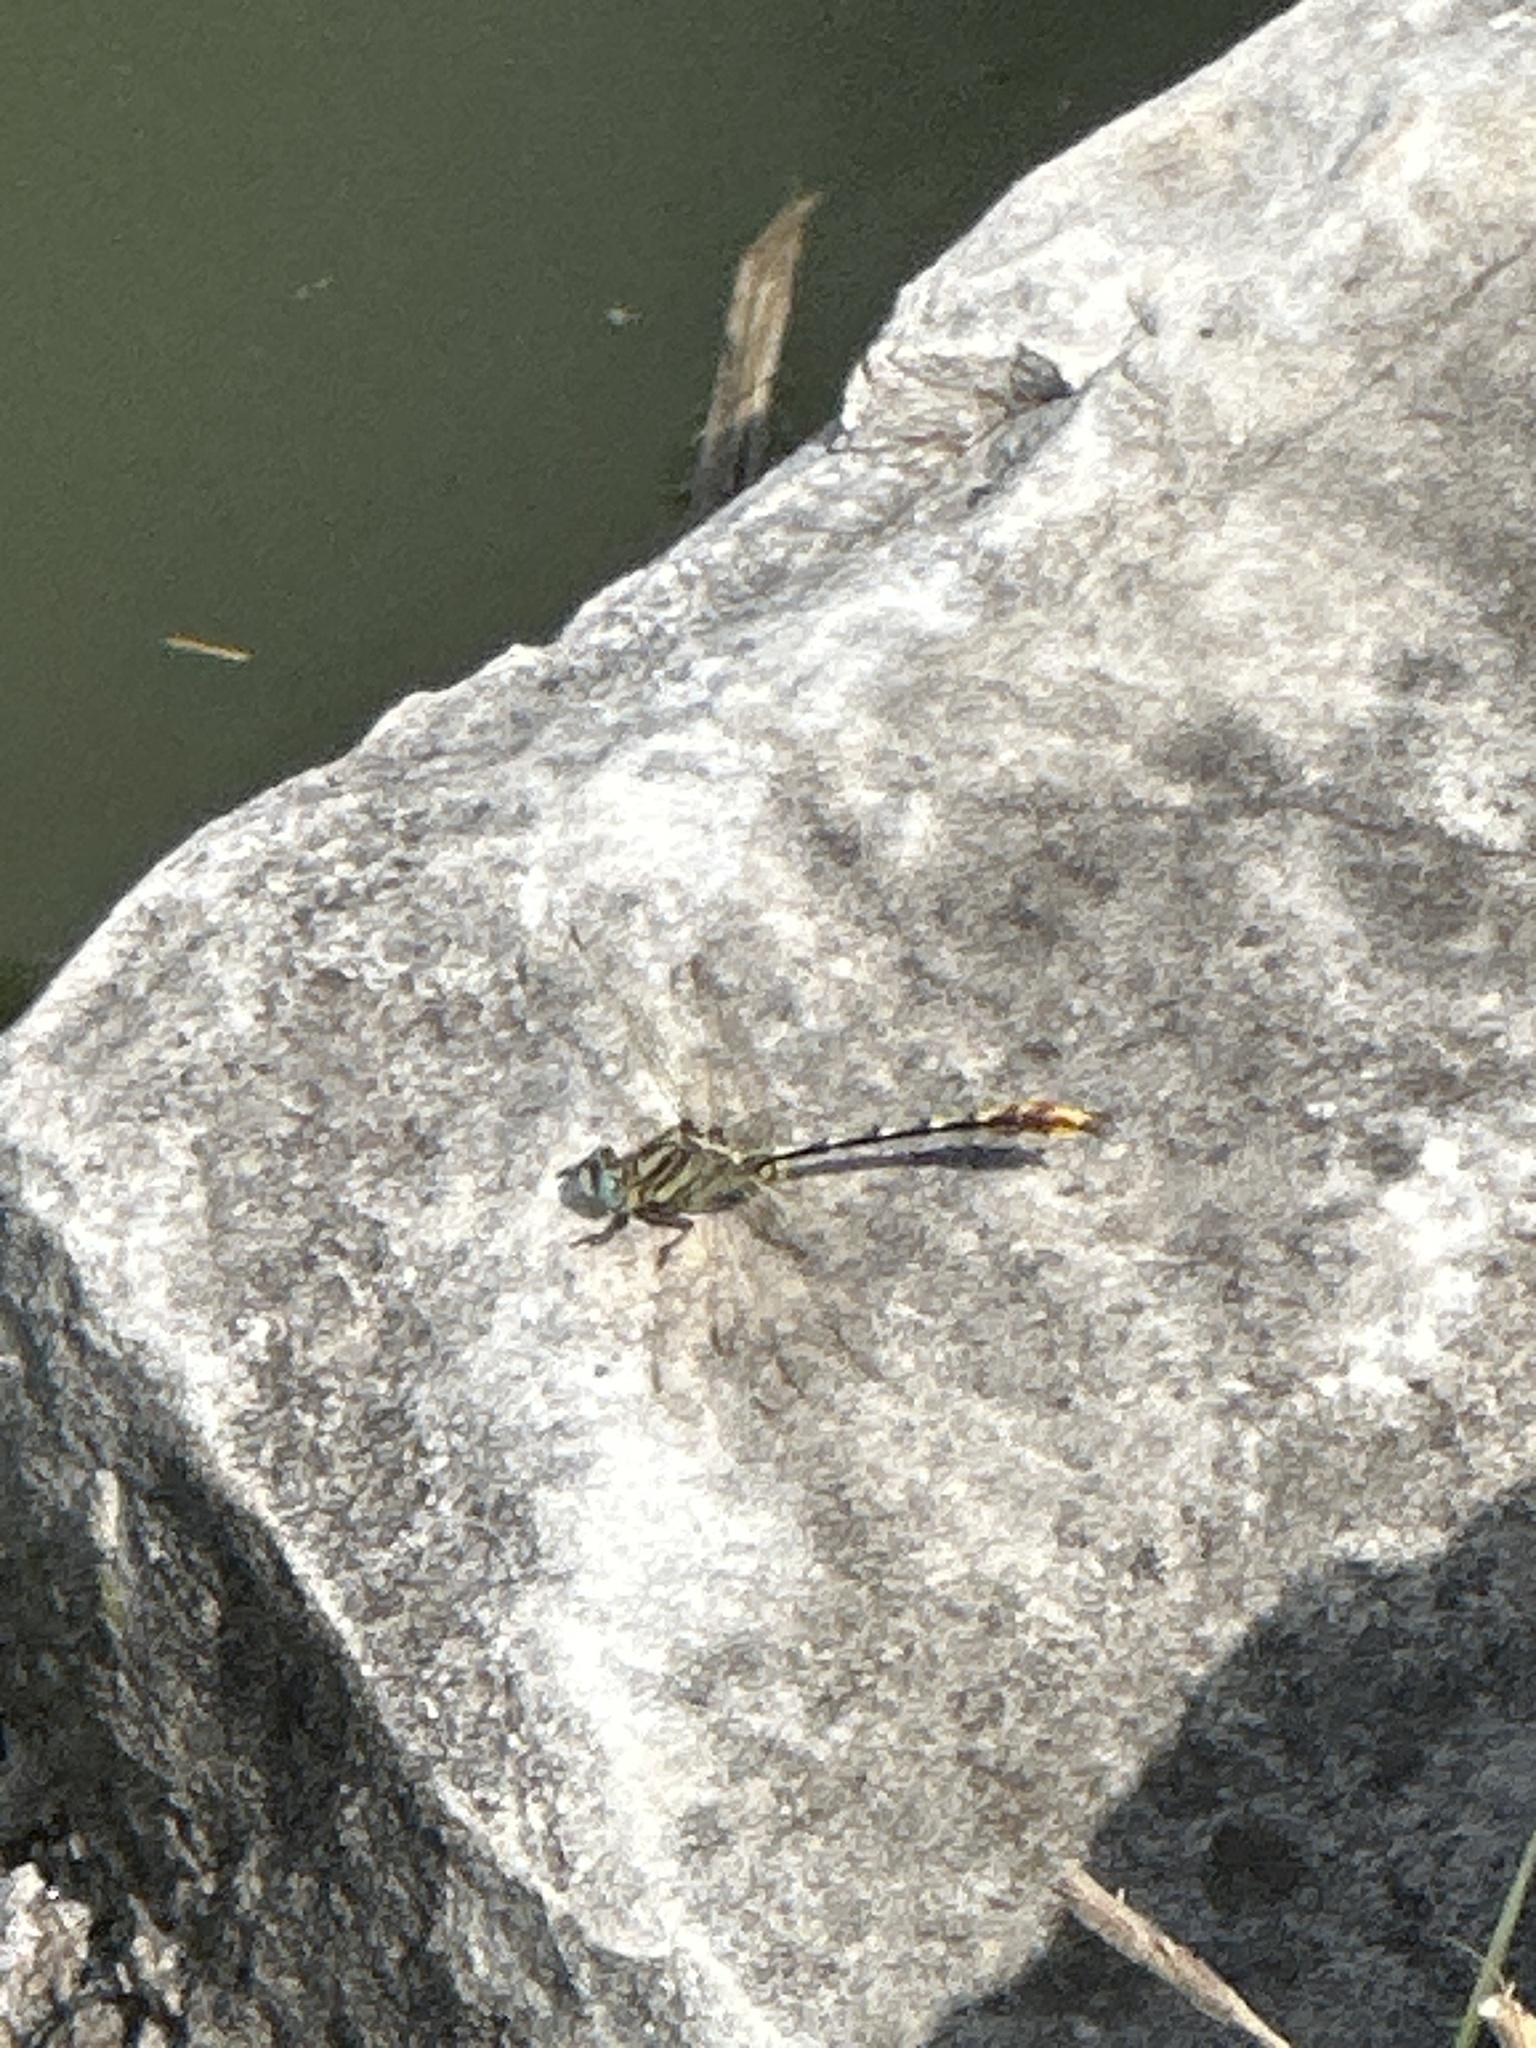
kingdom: Animalia
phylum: Arthropoda
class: Insecta
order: Odonata
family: Gomphidae
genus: Phanogomphus
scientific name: Phanogomphus militaris
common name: Sulphur-tipped clubtail
